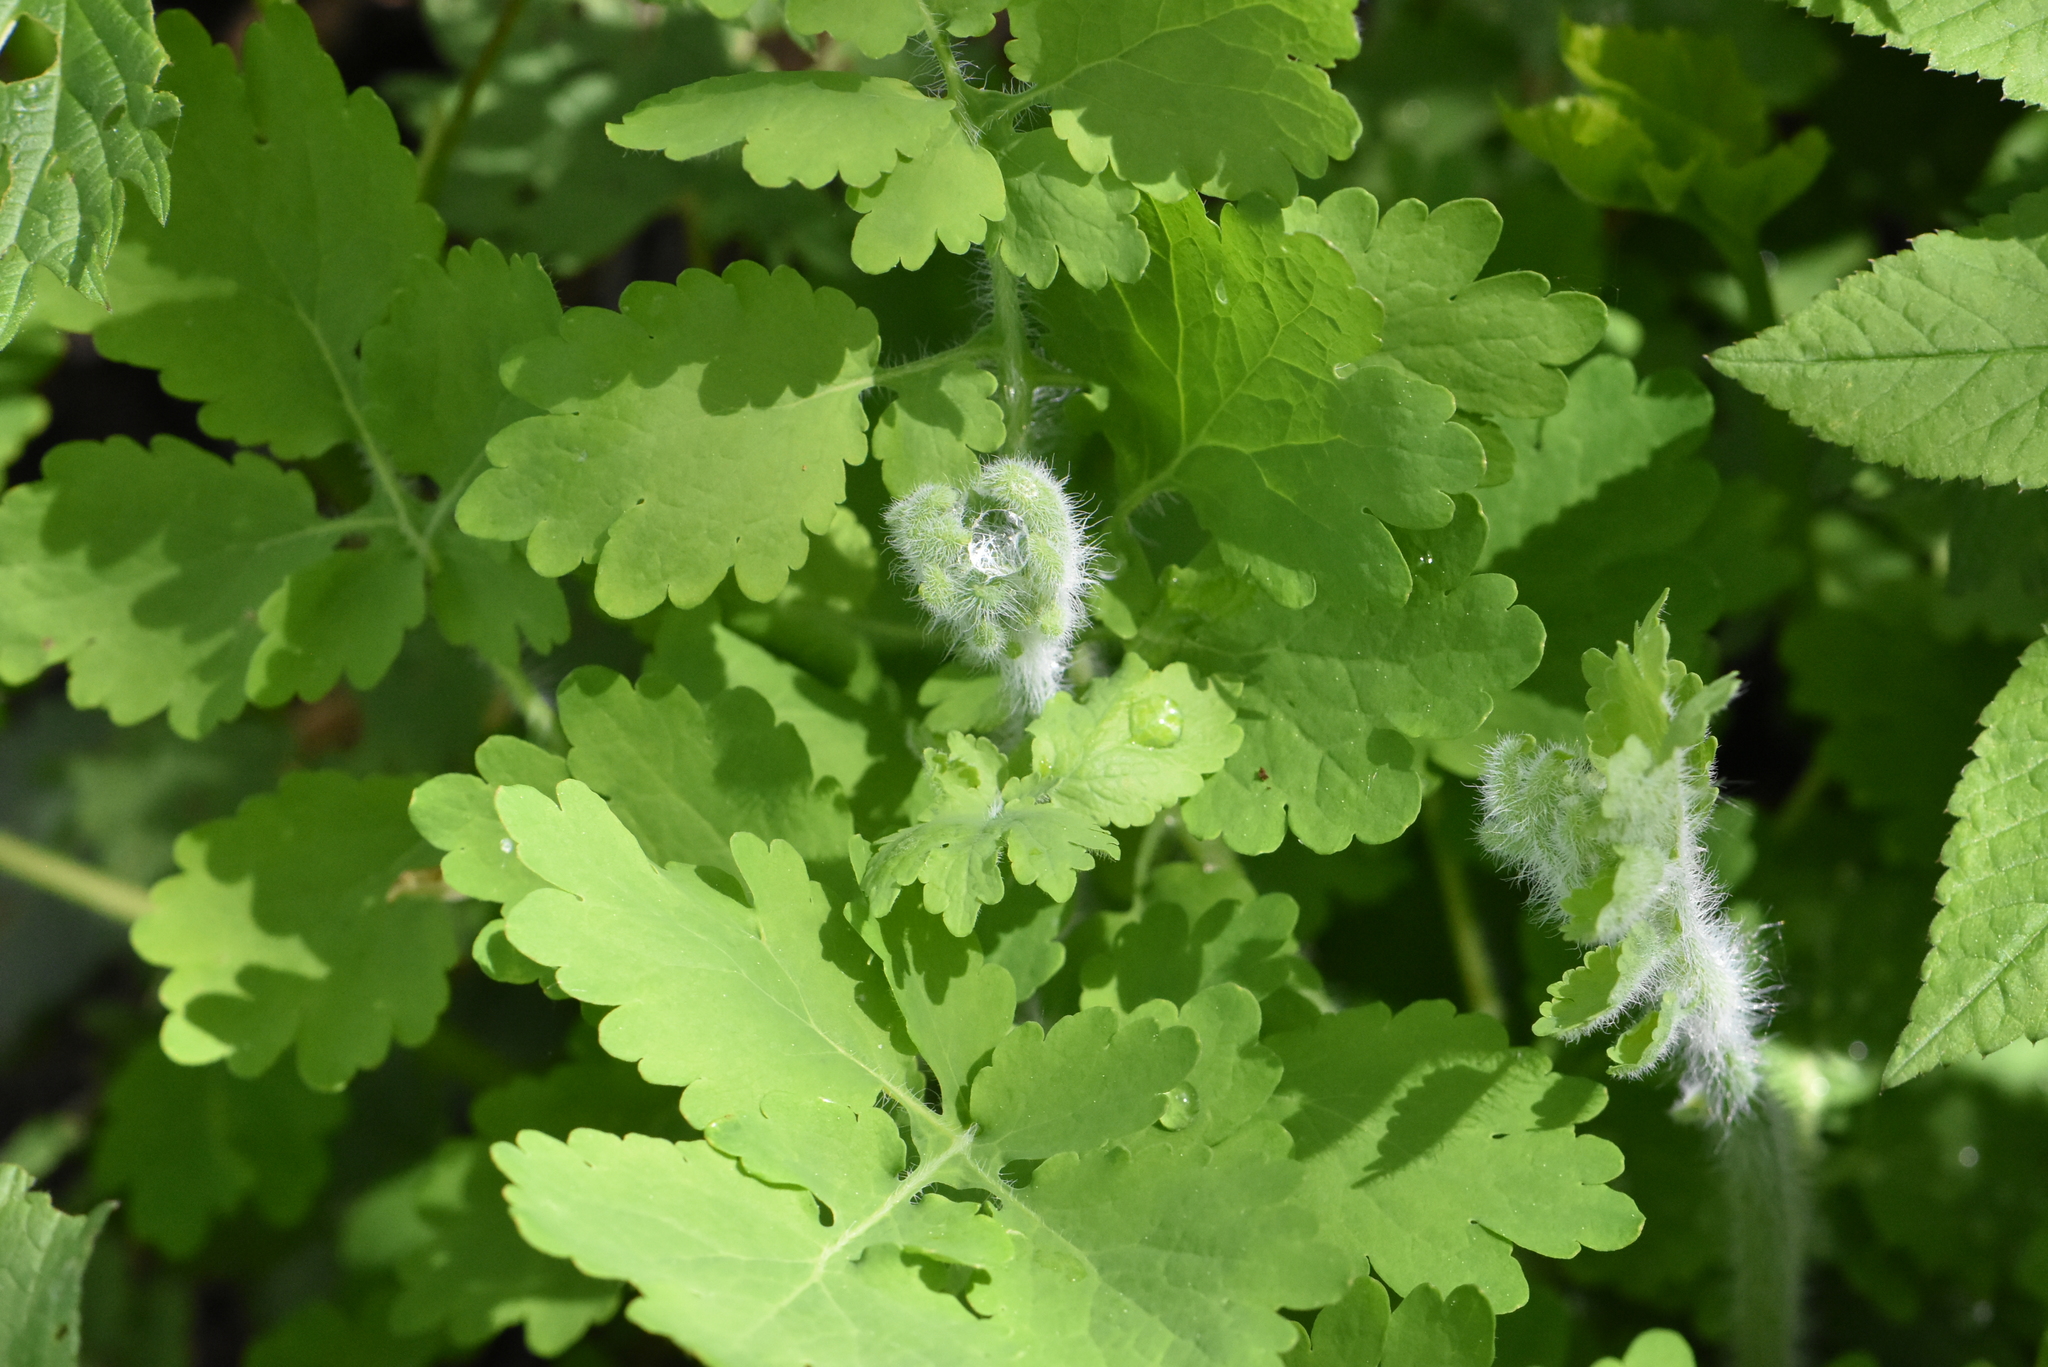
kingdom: Plantae
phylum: Tracheophyta
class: Magnoliopsida
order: Ranunculales
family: Papaveraceae
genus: Chelidonium
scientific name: Chelidonium majus
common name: Greater celandine
